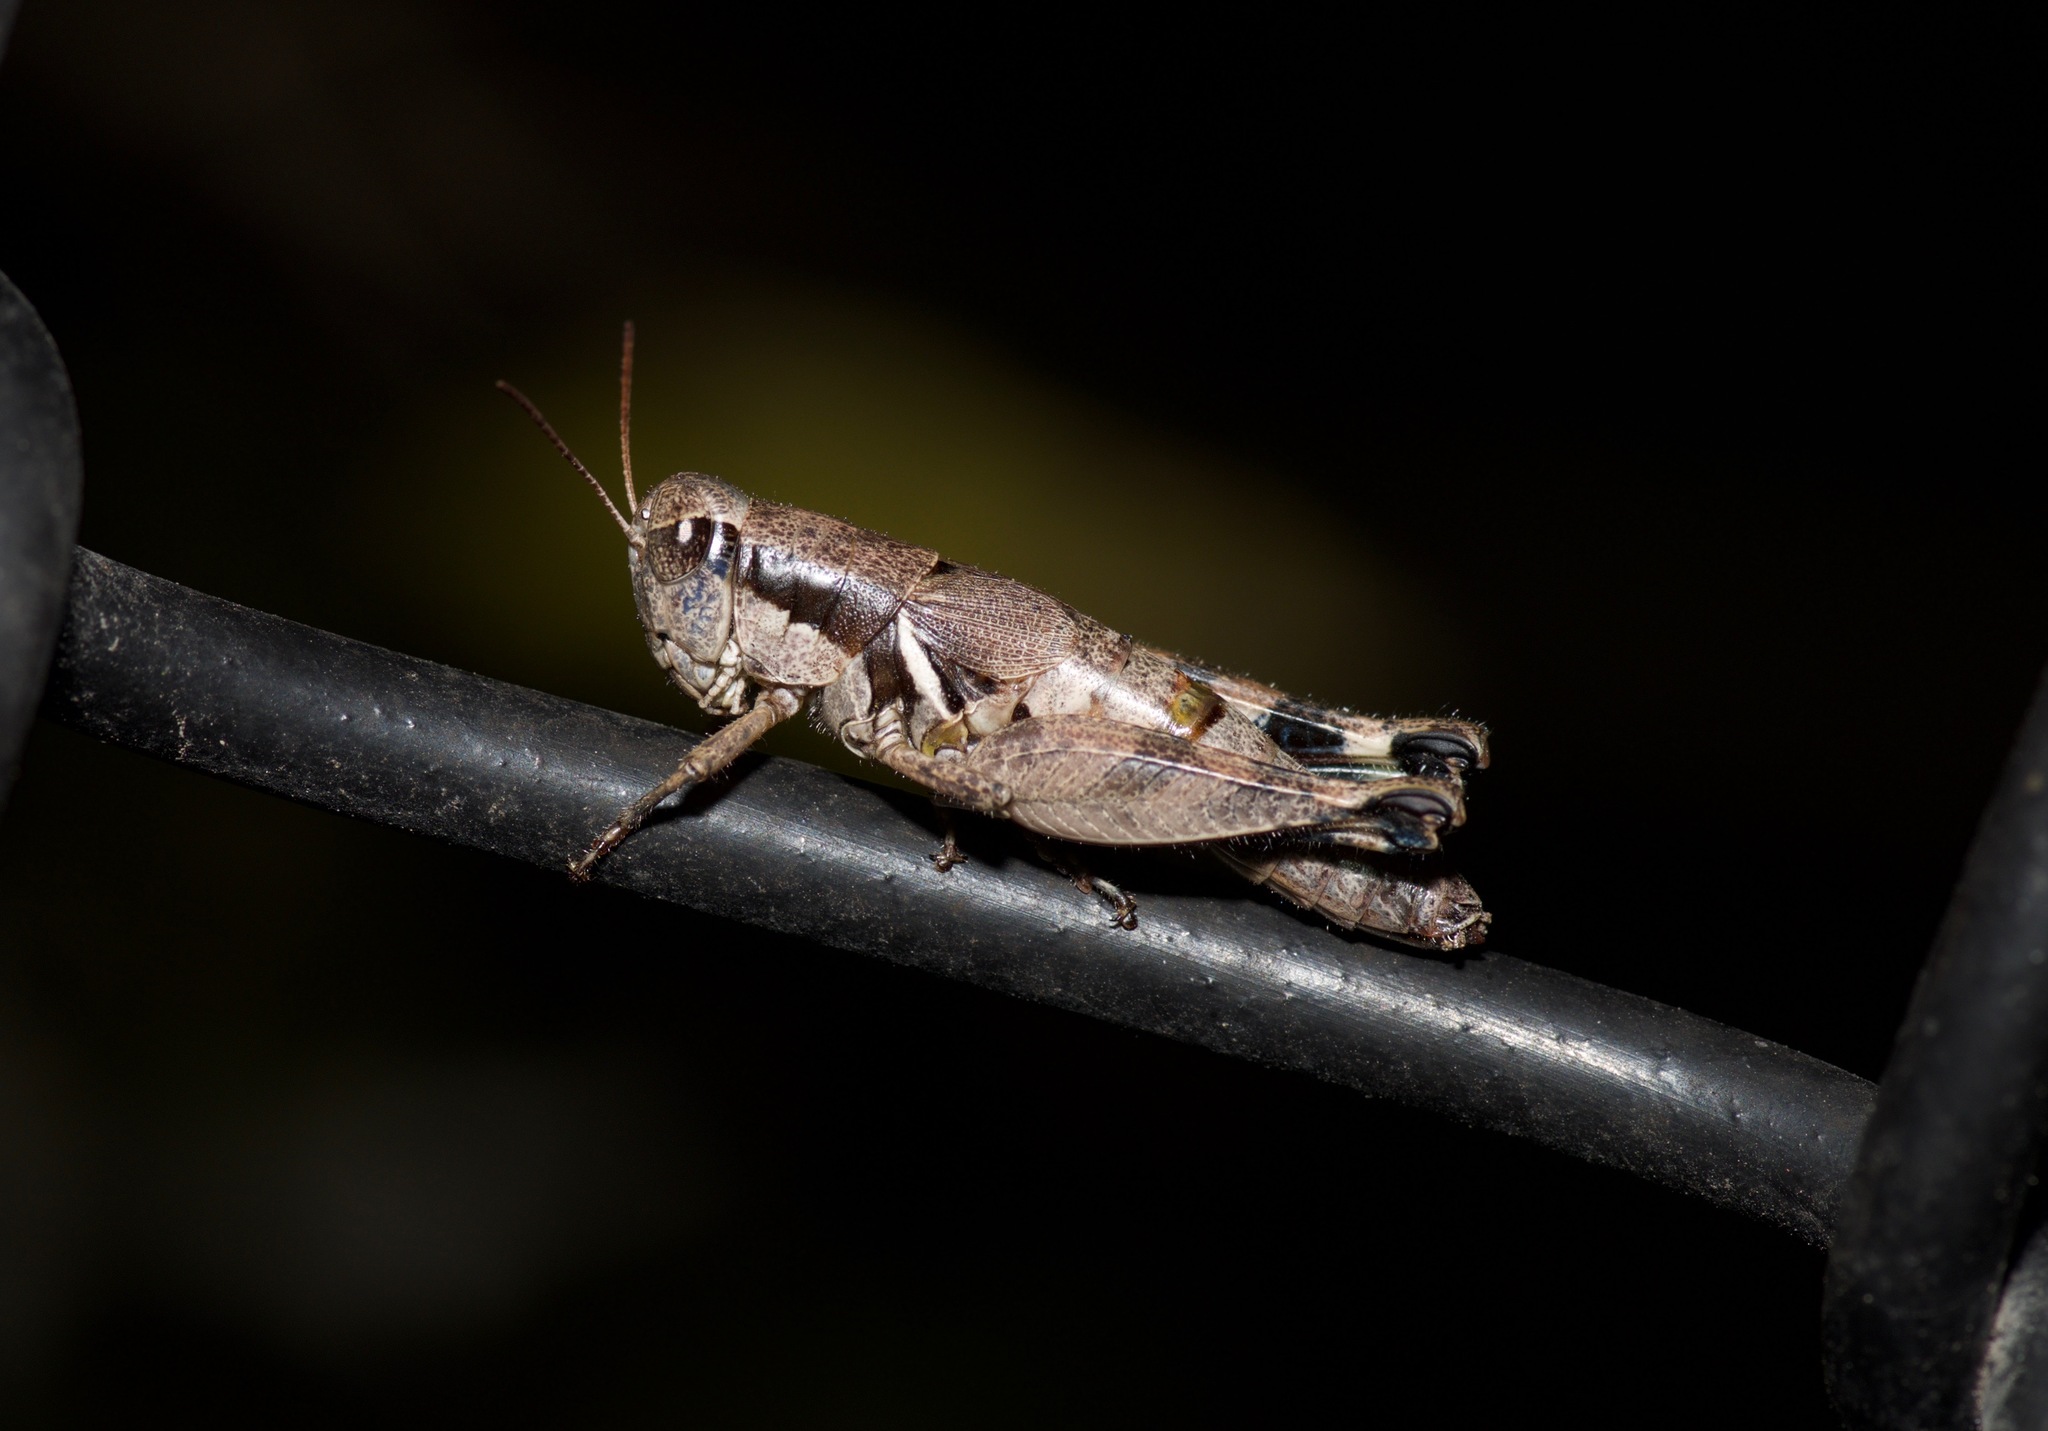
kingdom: Animalia
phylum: Arthropoda
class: Insecta
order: Orthoptera
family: Acrididae
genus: Melanoplus
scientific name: Melanoplus flabellatus
